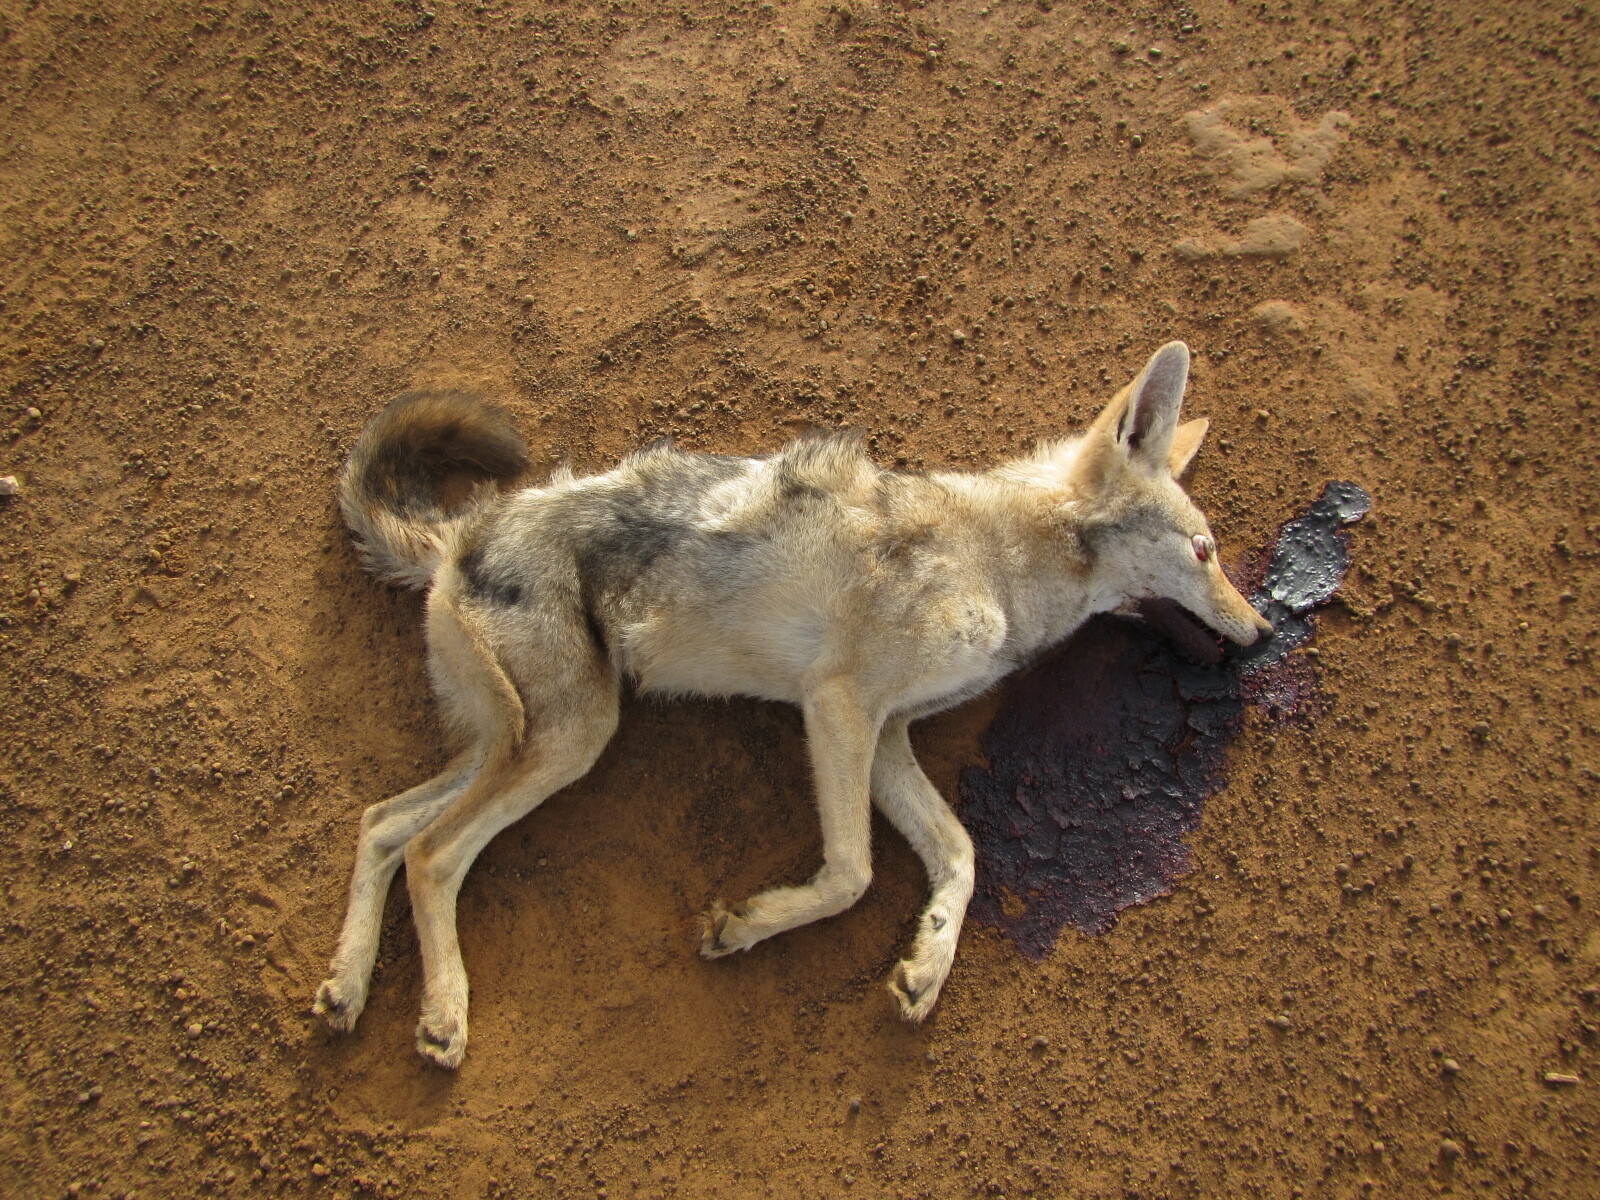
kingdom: Animalia
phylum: Chordata
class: Mammalia
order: Carnivora
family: Canidae
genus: Canis
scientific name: Canis lupaster
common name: African golden wolf
